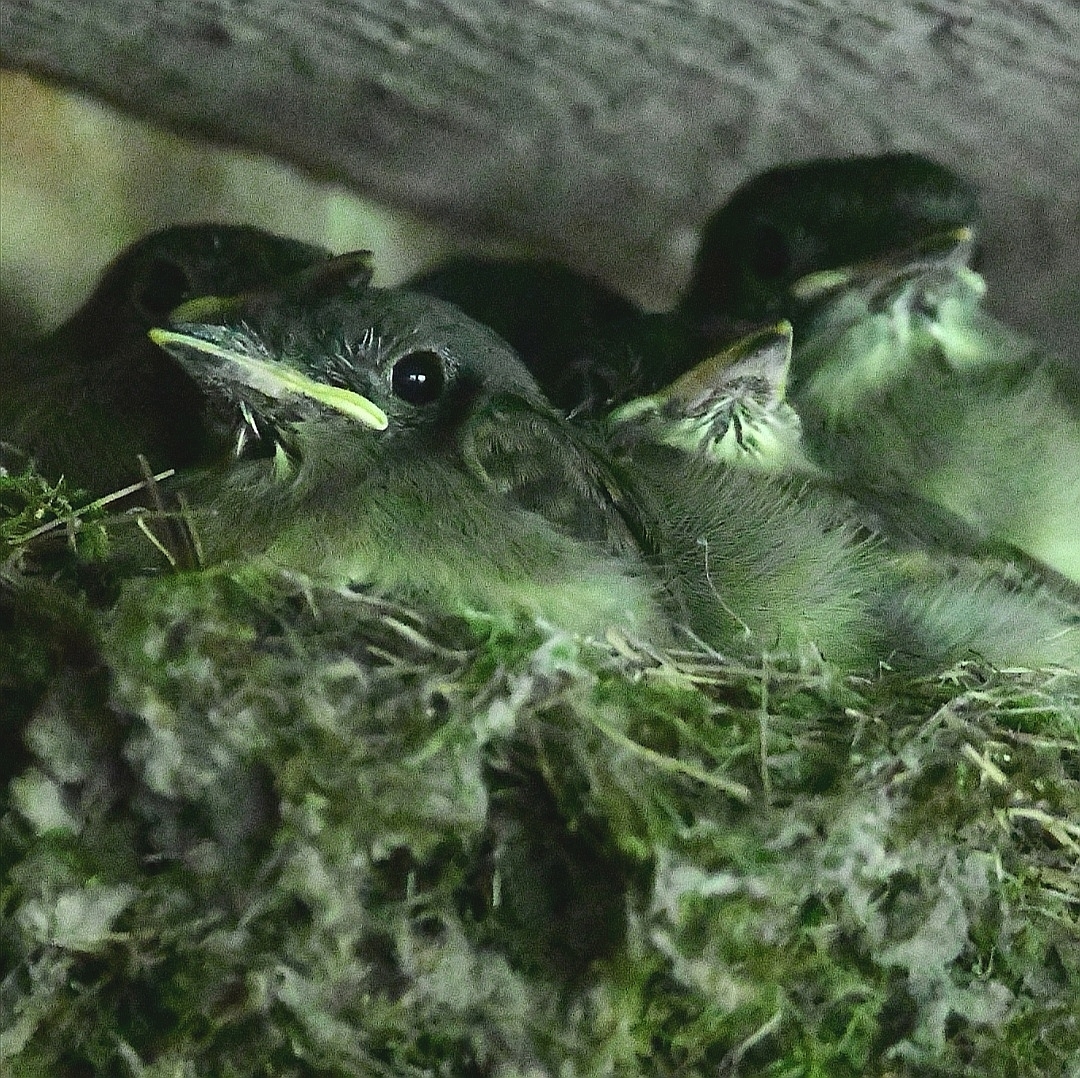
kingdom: Animalia
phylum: Chordata
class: Aves
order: Passeriformes
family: Tyrannidae
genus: Sayornis
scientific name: Sayornis phoebe
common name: Eastern phoebe
